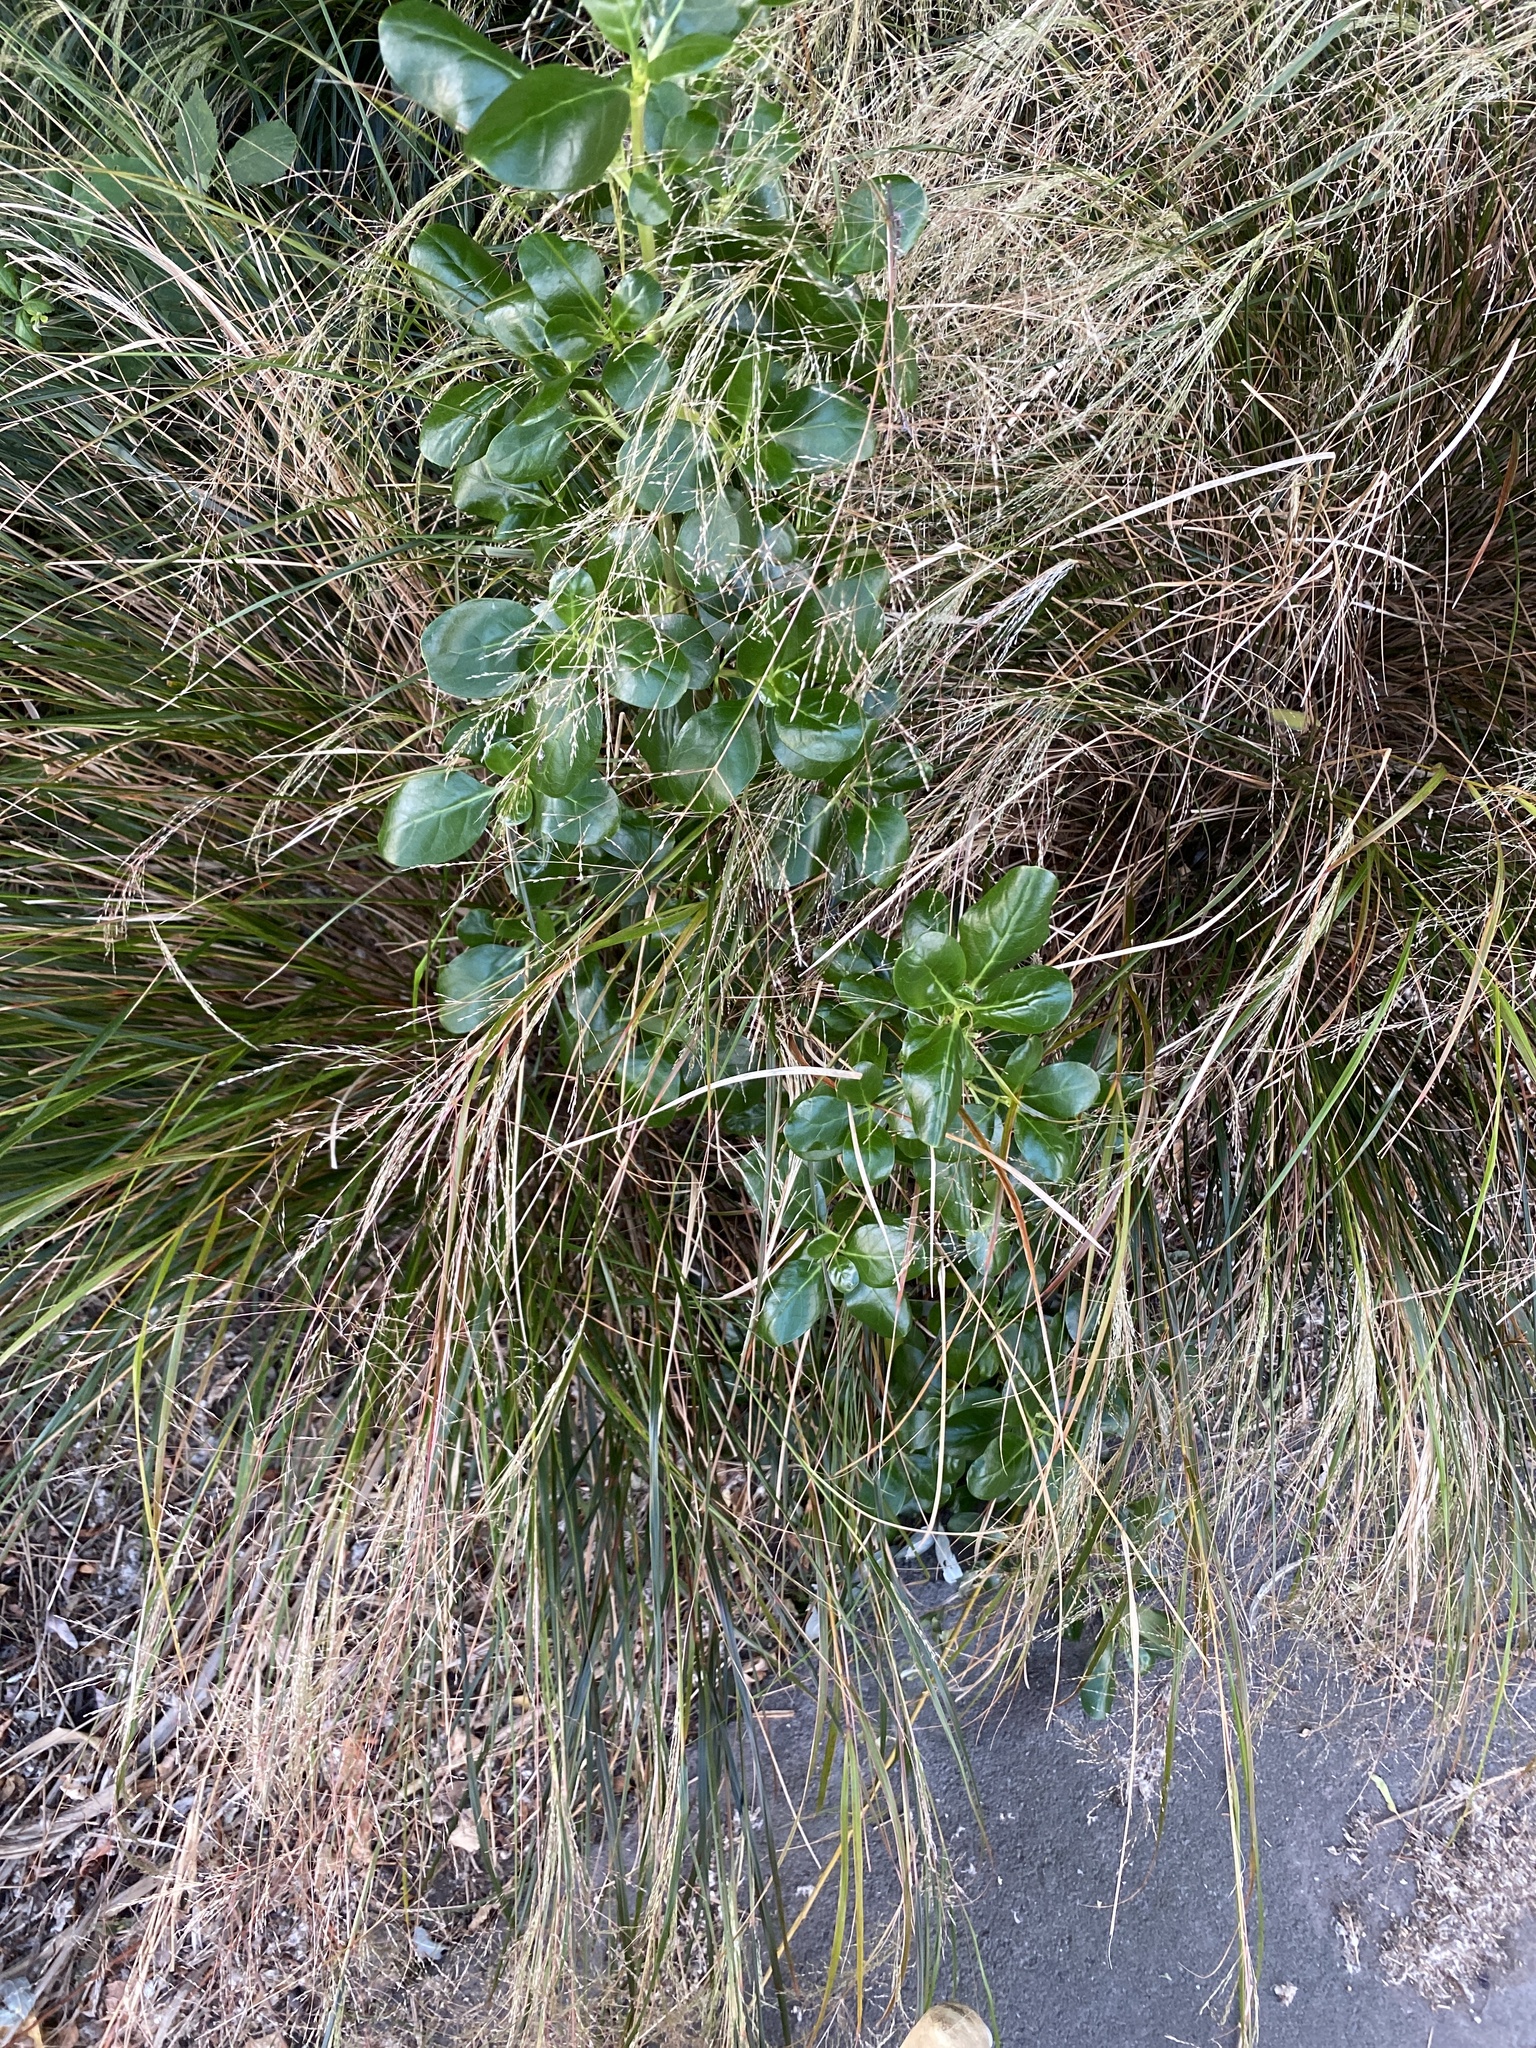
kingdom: Plantae
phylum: Tracheophyta
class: Magnoliopsida
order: Gentianales
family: Rubiaceae
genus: Coprosma
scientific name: Coprosma repens
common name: Tree bedstraw
